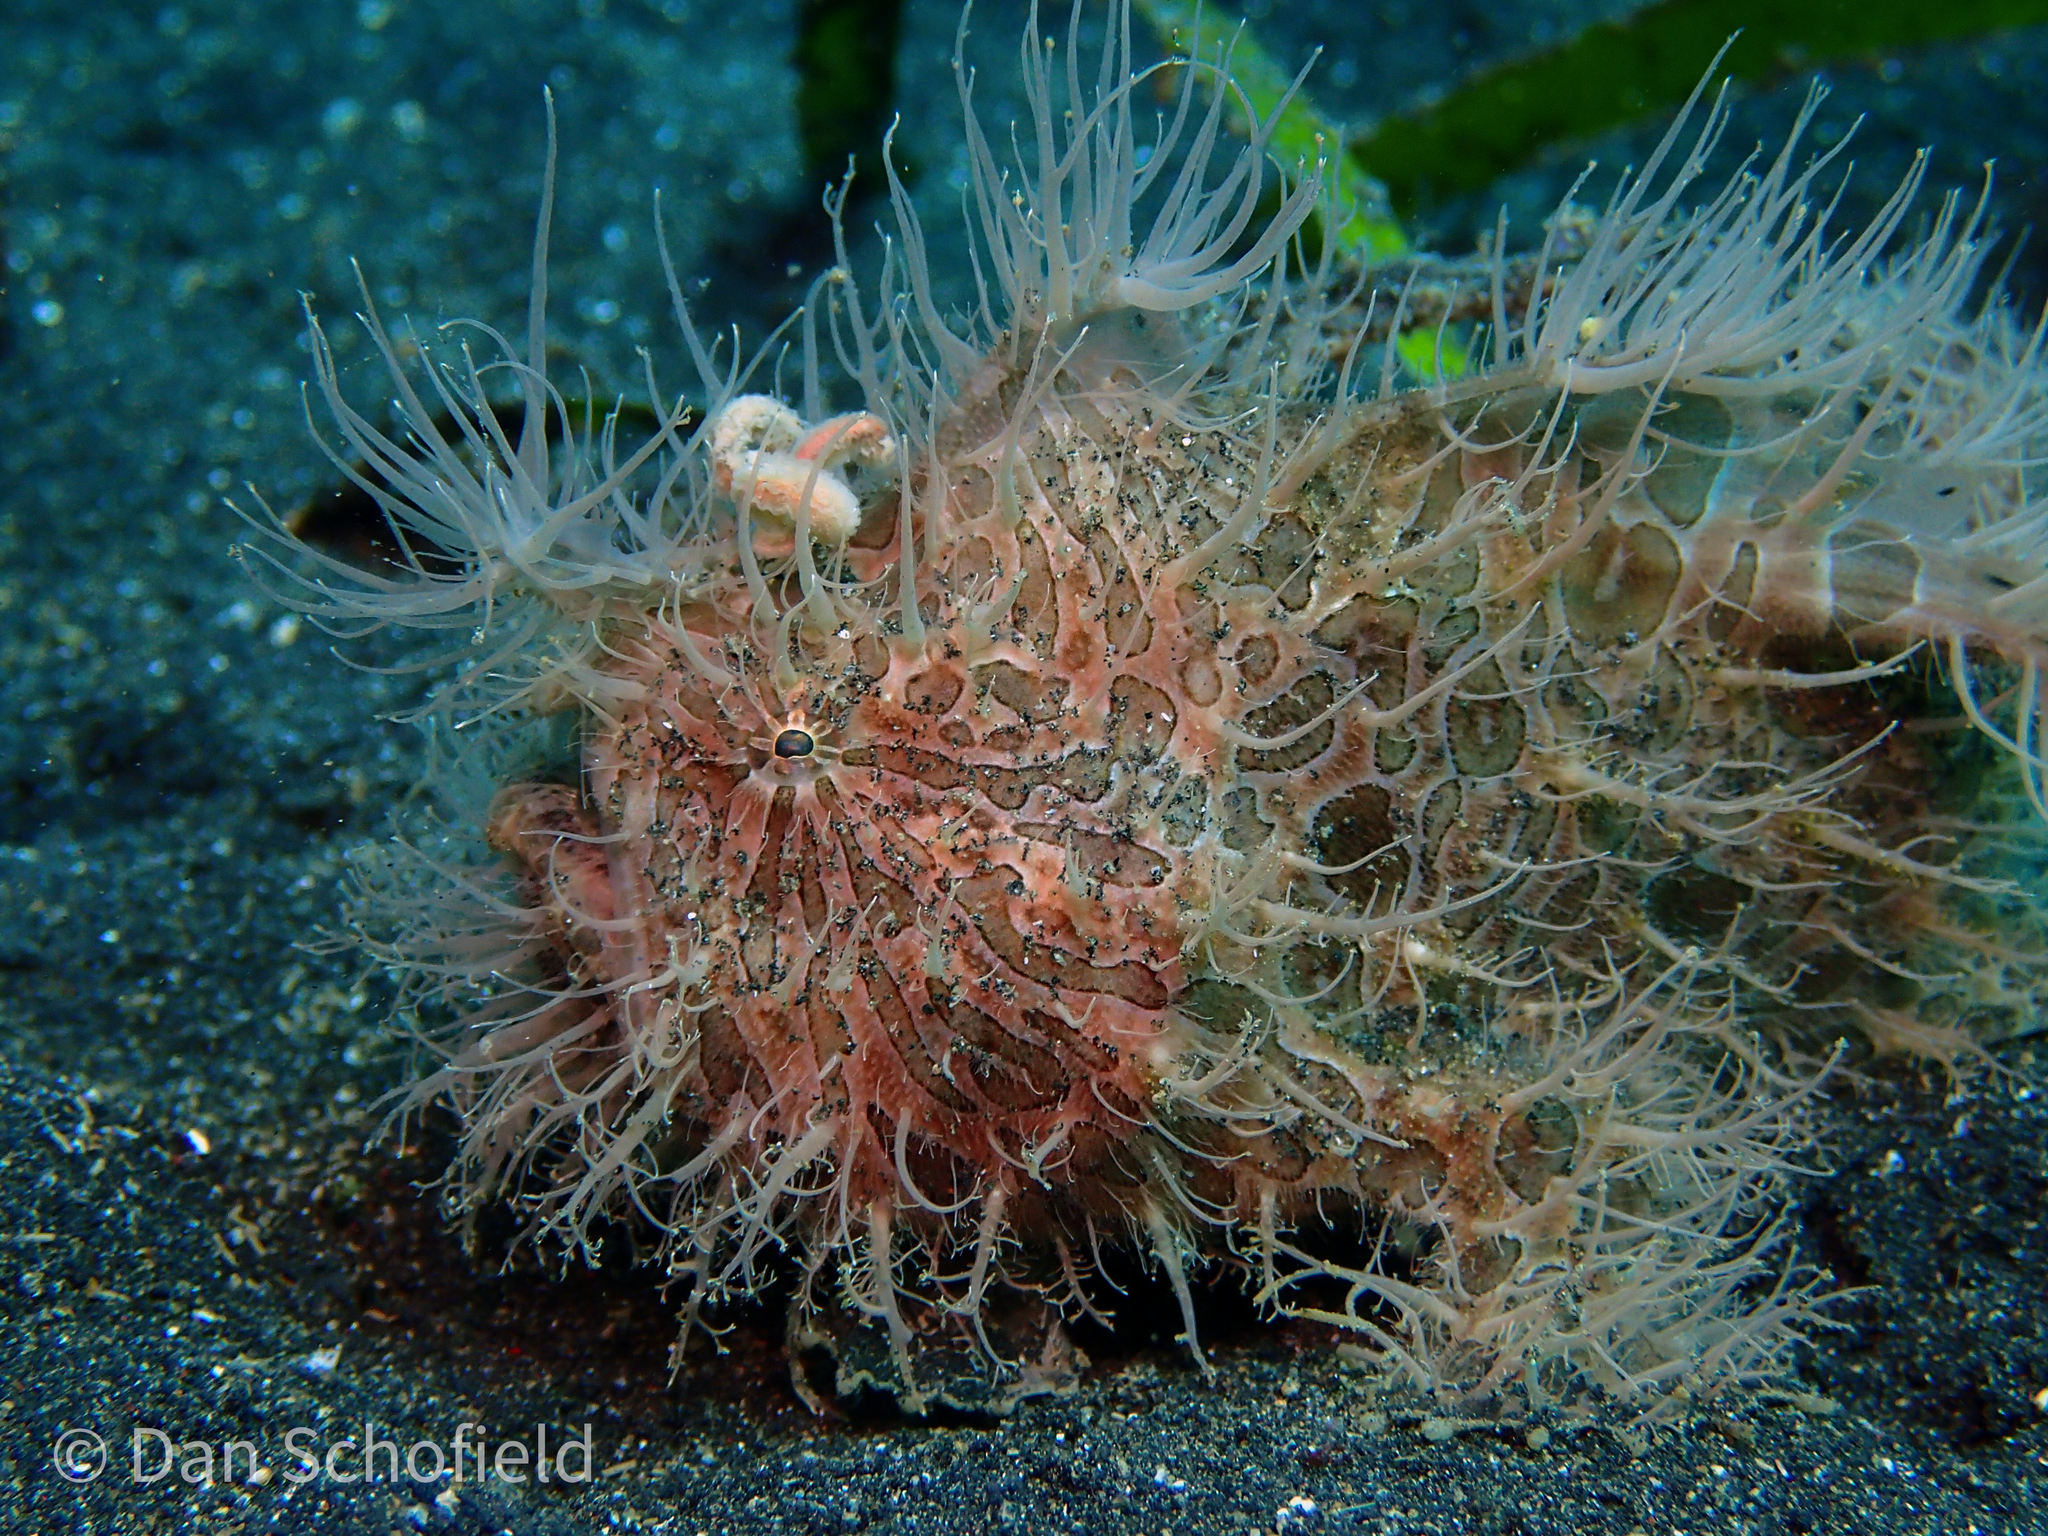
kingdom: Animalia
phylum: Chordata
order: Lophiiformes
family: Antennariidae
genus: Antennarius
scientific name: Antennarius striatus
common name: Striated frogfish
